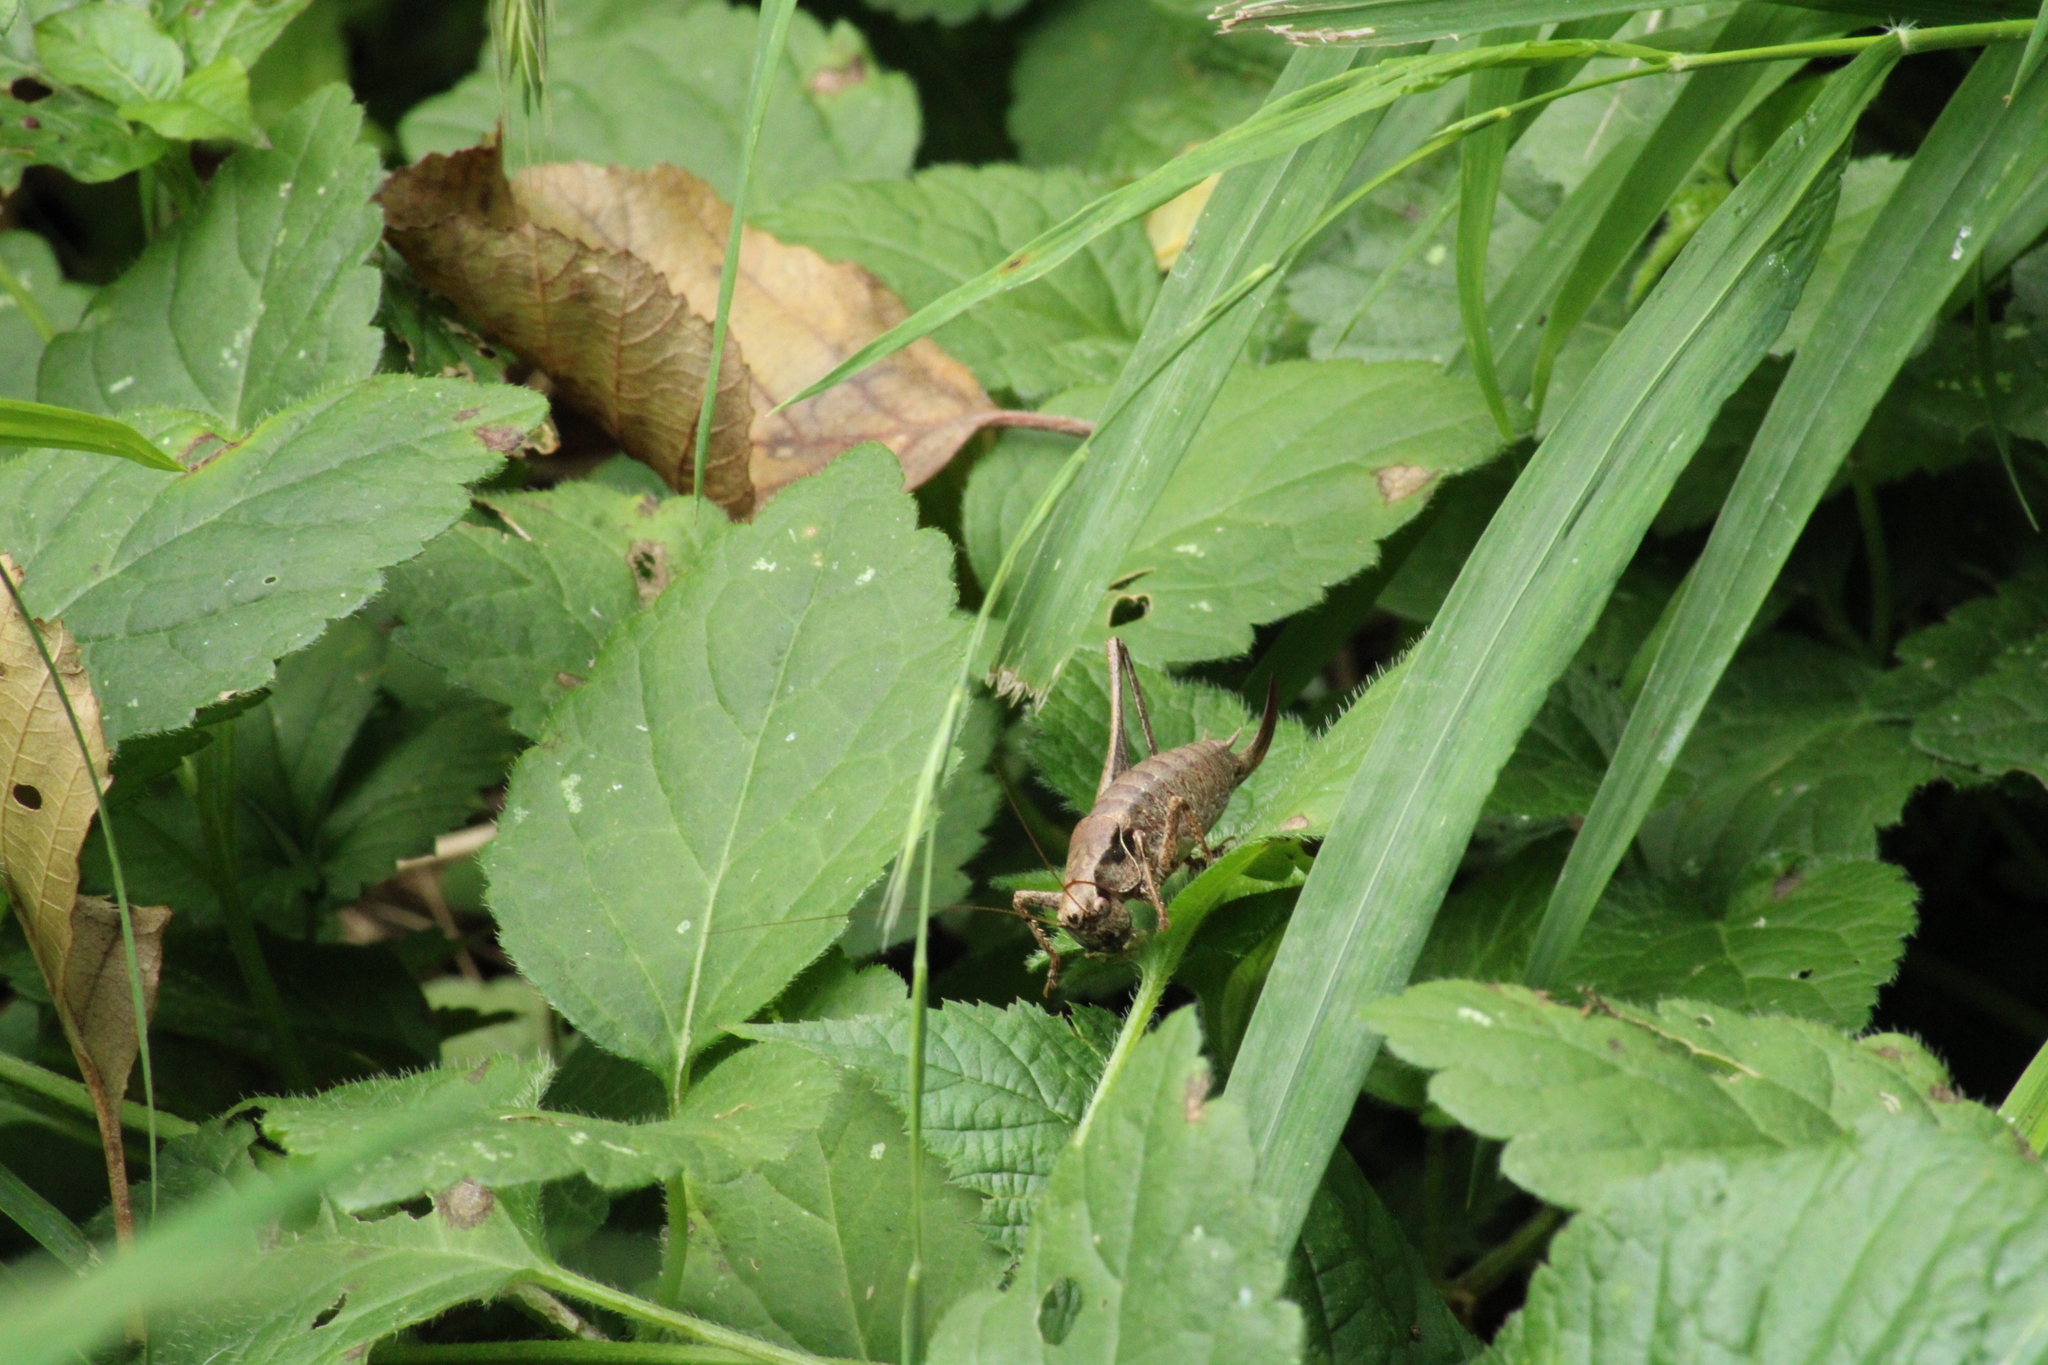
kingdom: Animalia
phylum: Arthropoda
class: Insecta
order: Orthoptera
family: Tettigoniidae
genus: Pholidoptera
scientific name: Pholidoptera griseoaptera
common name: Dark bush-cricket
